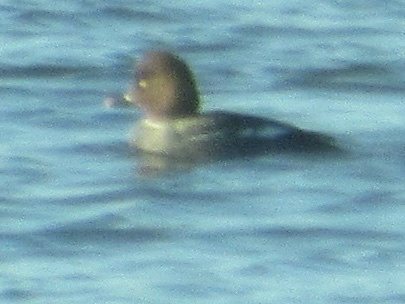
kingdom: Animalia
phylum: Chordata
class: Aves
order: Anseriformes
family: Anatidae
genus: Bucephala
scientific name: Bucephala clangula
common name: Common goldeneye
